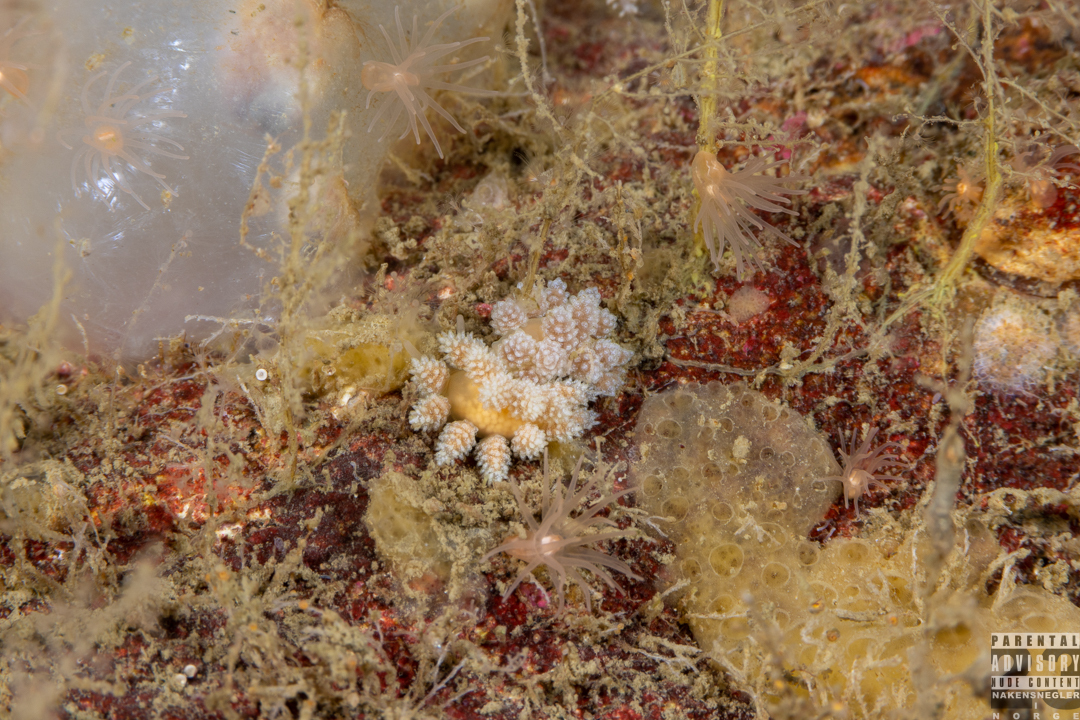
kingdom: Animalia
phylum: Mollusca
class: Gastropoda
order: Nudibranchia
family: Dotidae
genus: Doto
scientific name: Doto fragilis
